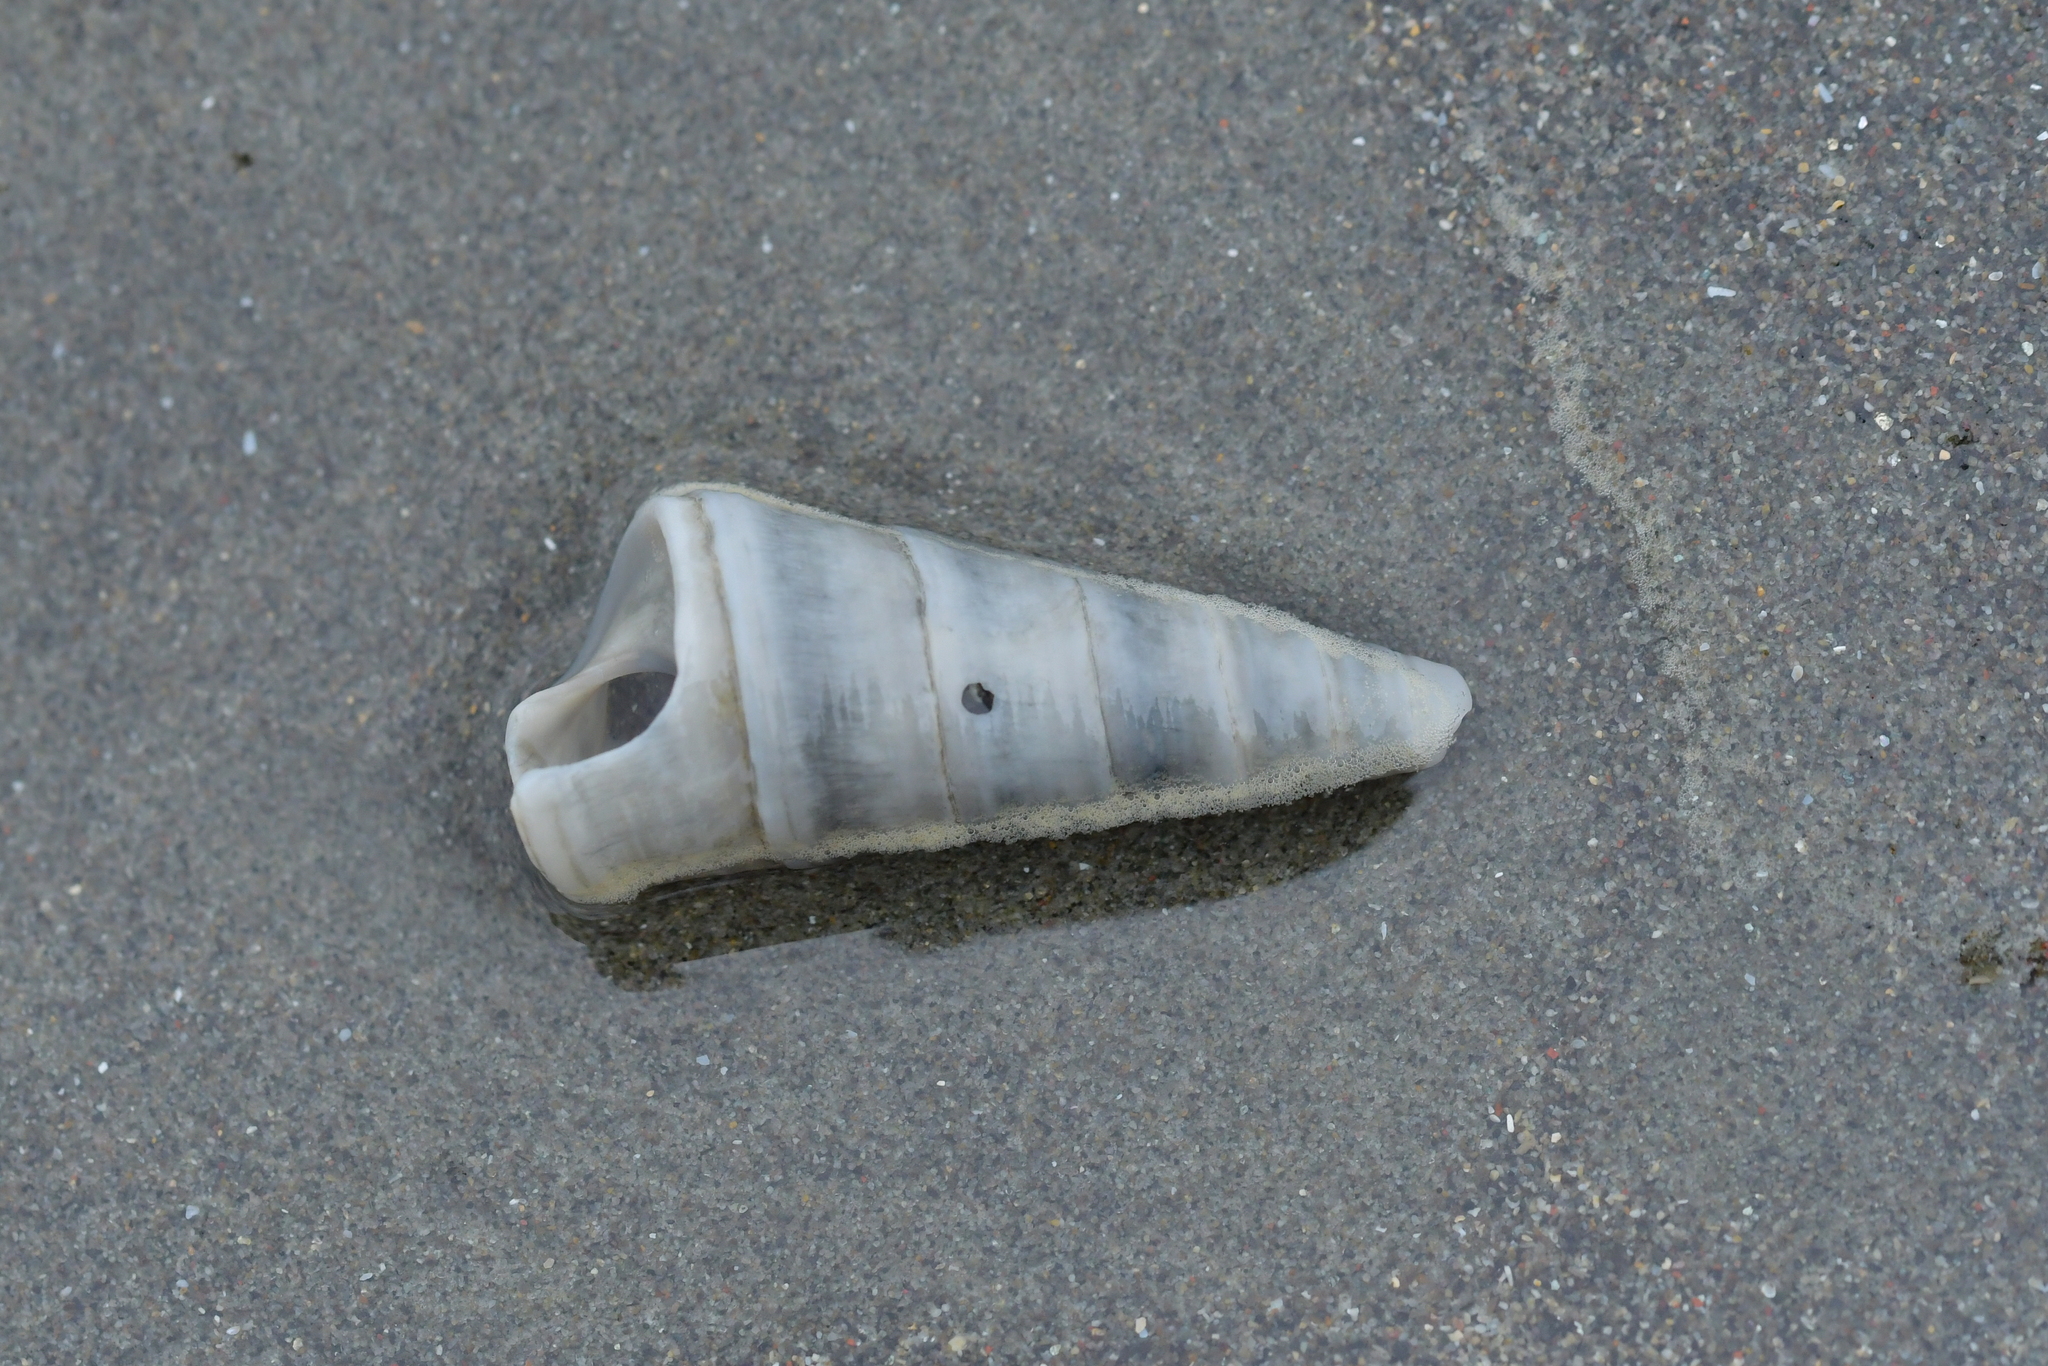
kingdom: Animalia
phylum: Mollusca
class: Gastropoda
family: Turritellidae
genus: Maoricolpus
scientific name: Maoricolpus roseus
